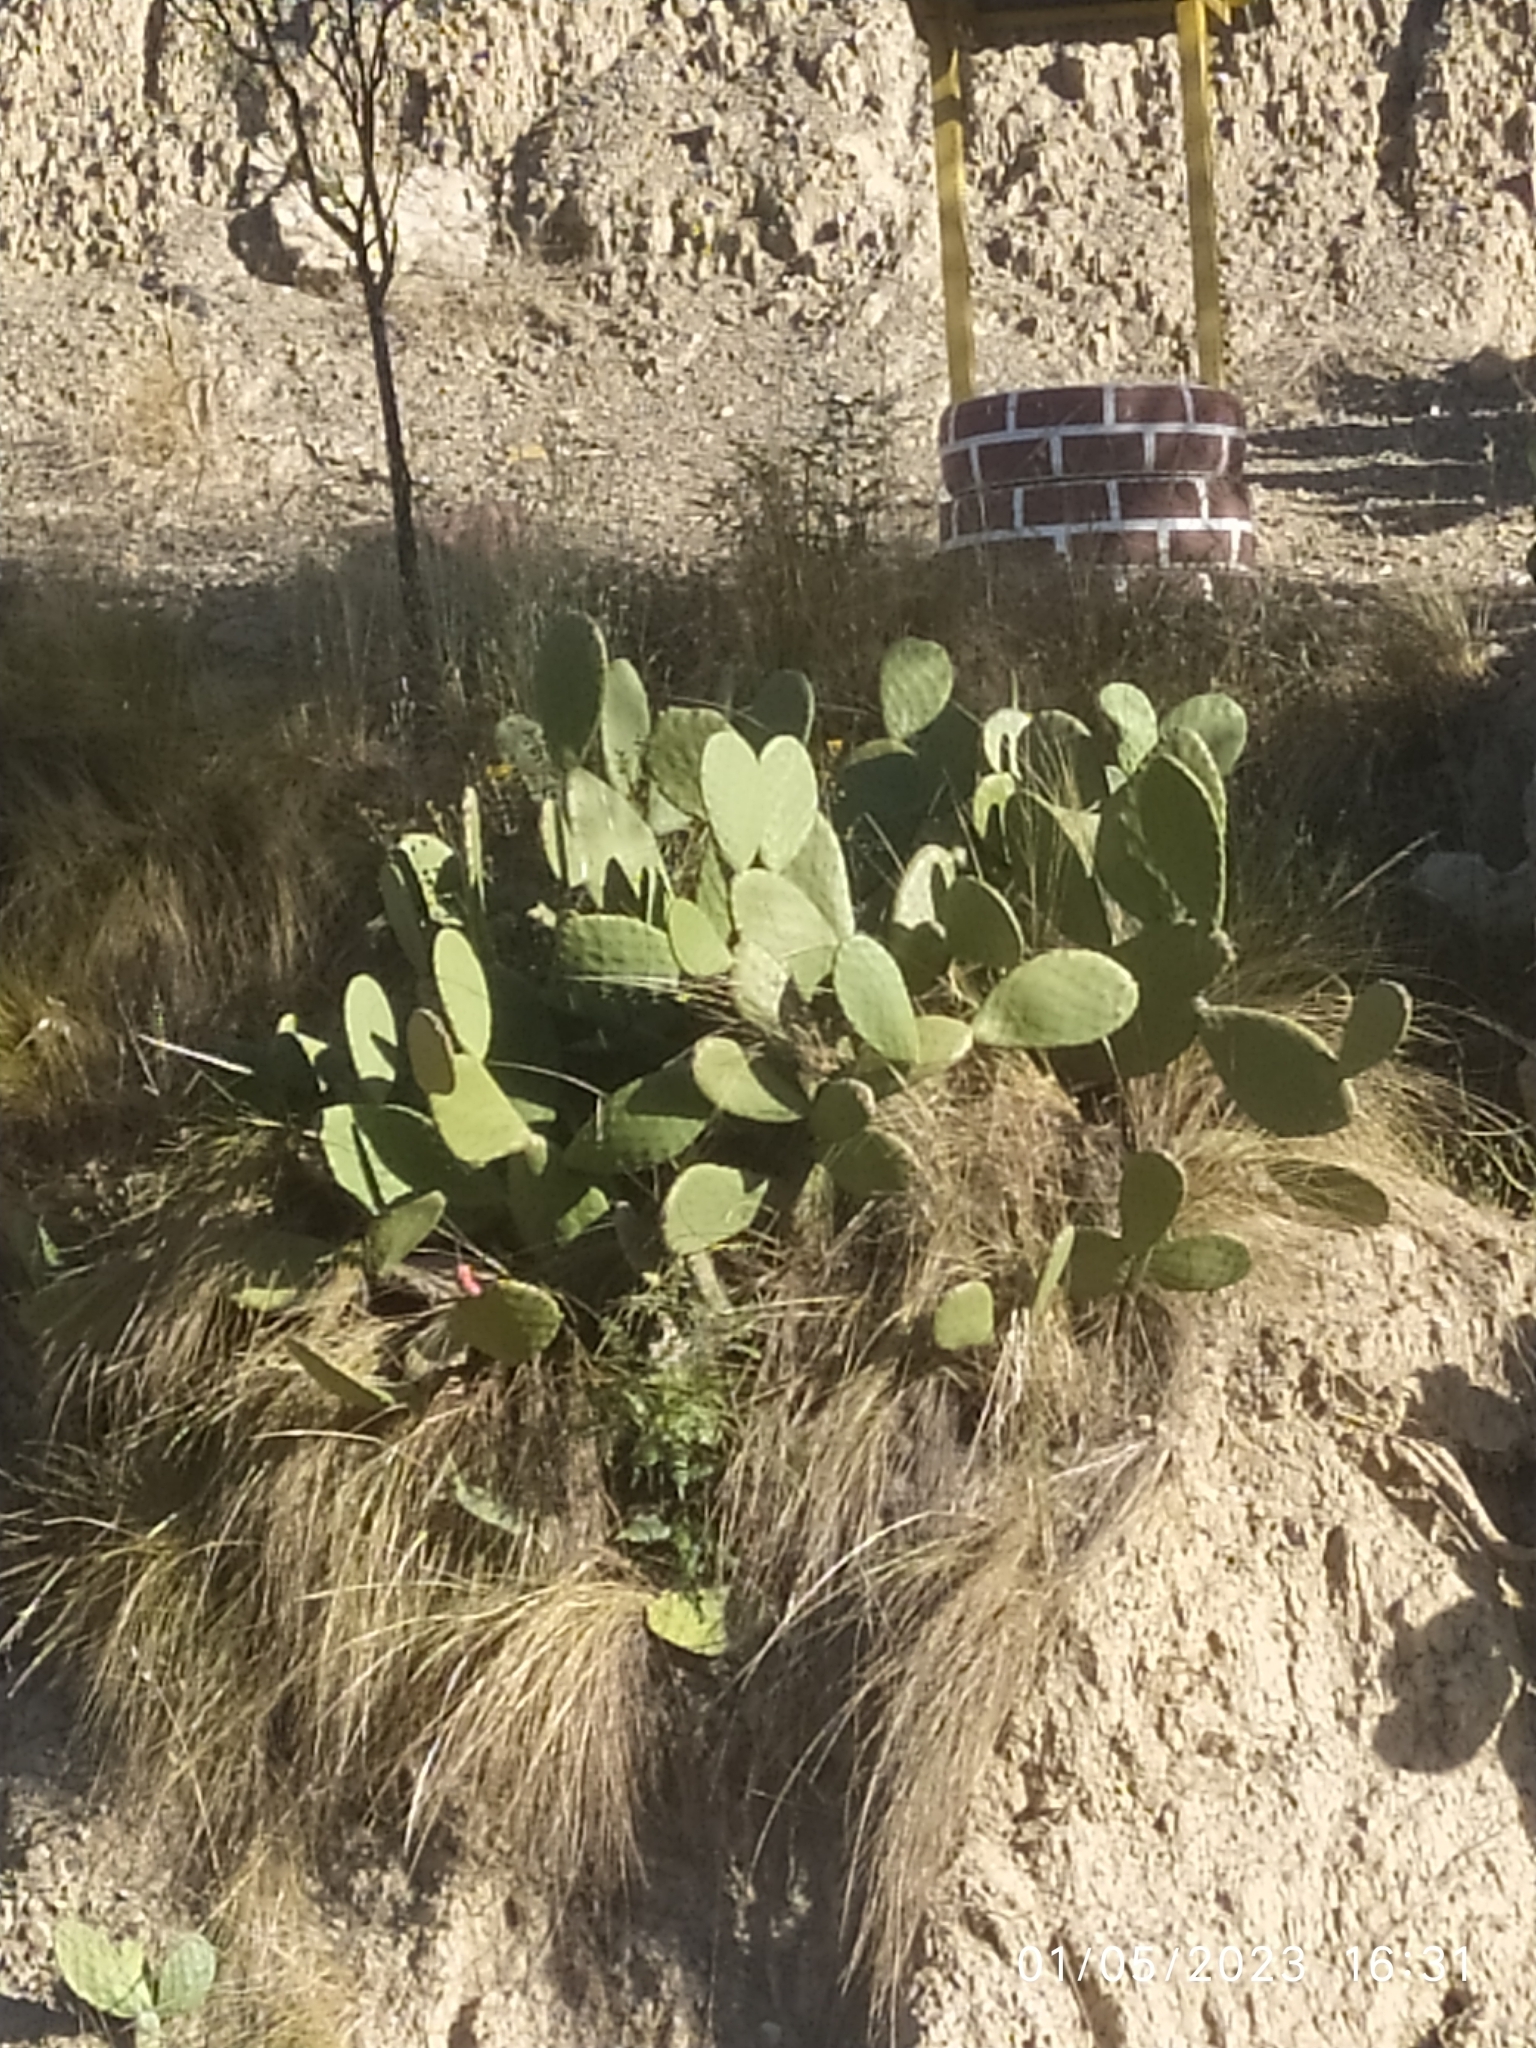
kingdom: Plantae
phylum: Tracheophyta
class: Magnoliopsida
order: Caryophyllales
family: Cactaceae
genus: Opuntia
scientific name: Opuntia ficus-indica
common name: Barbary fig
